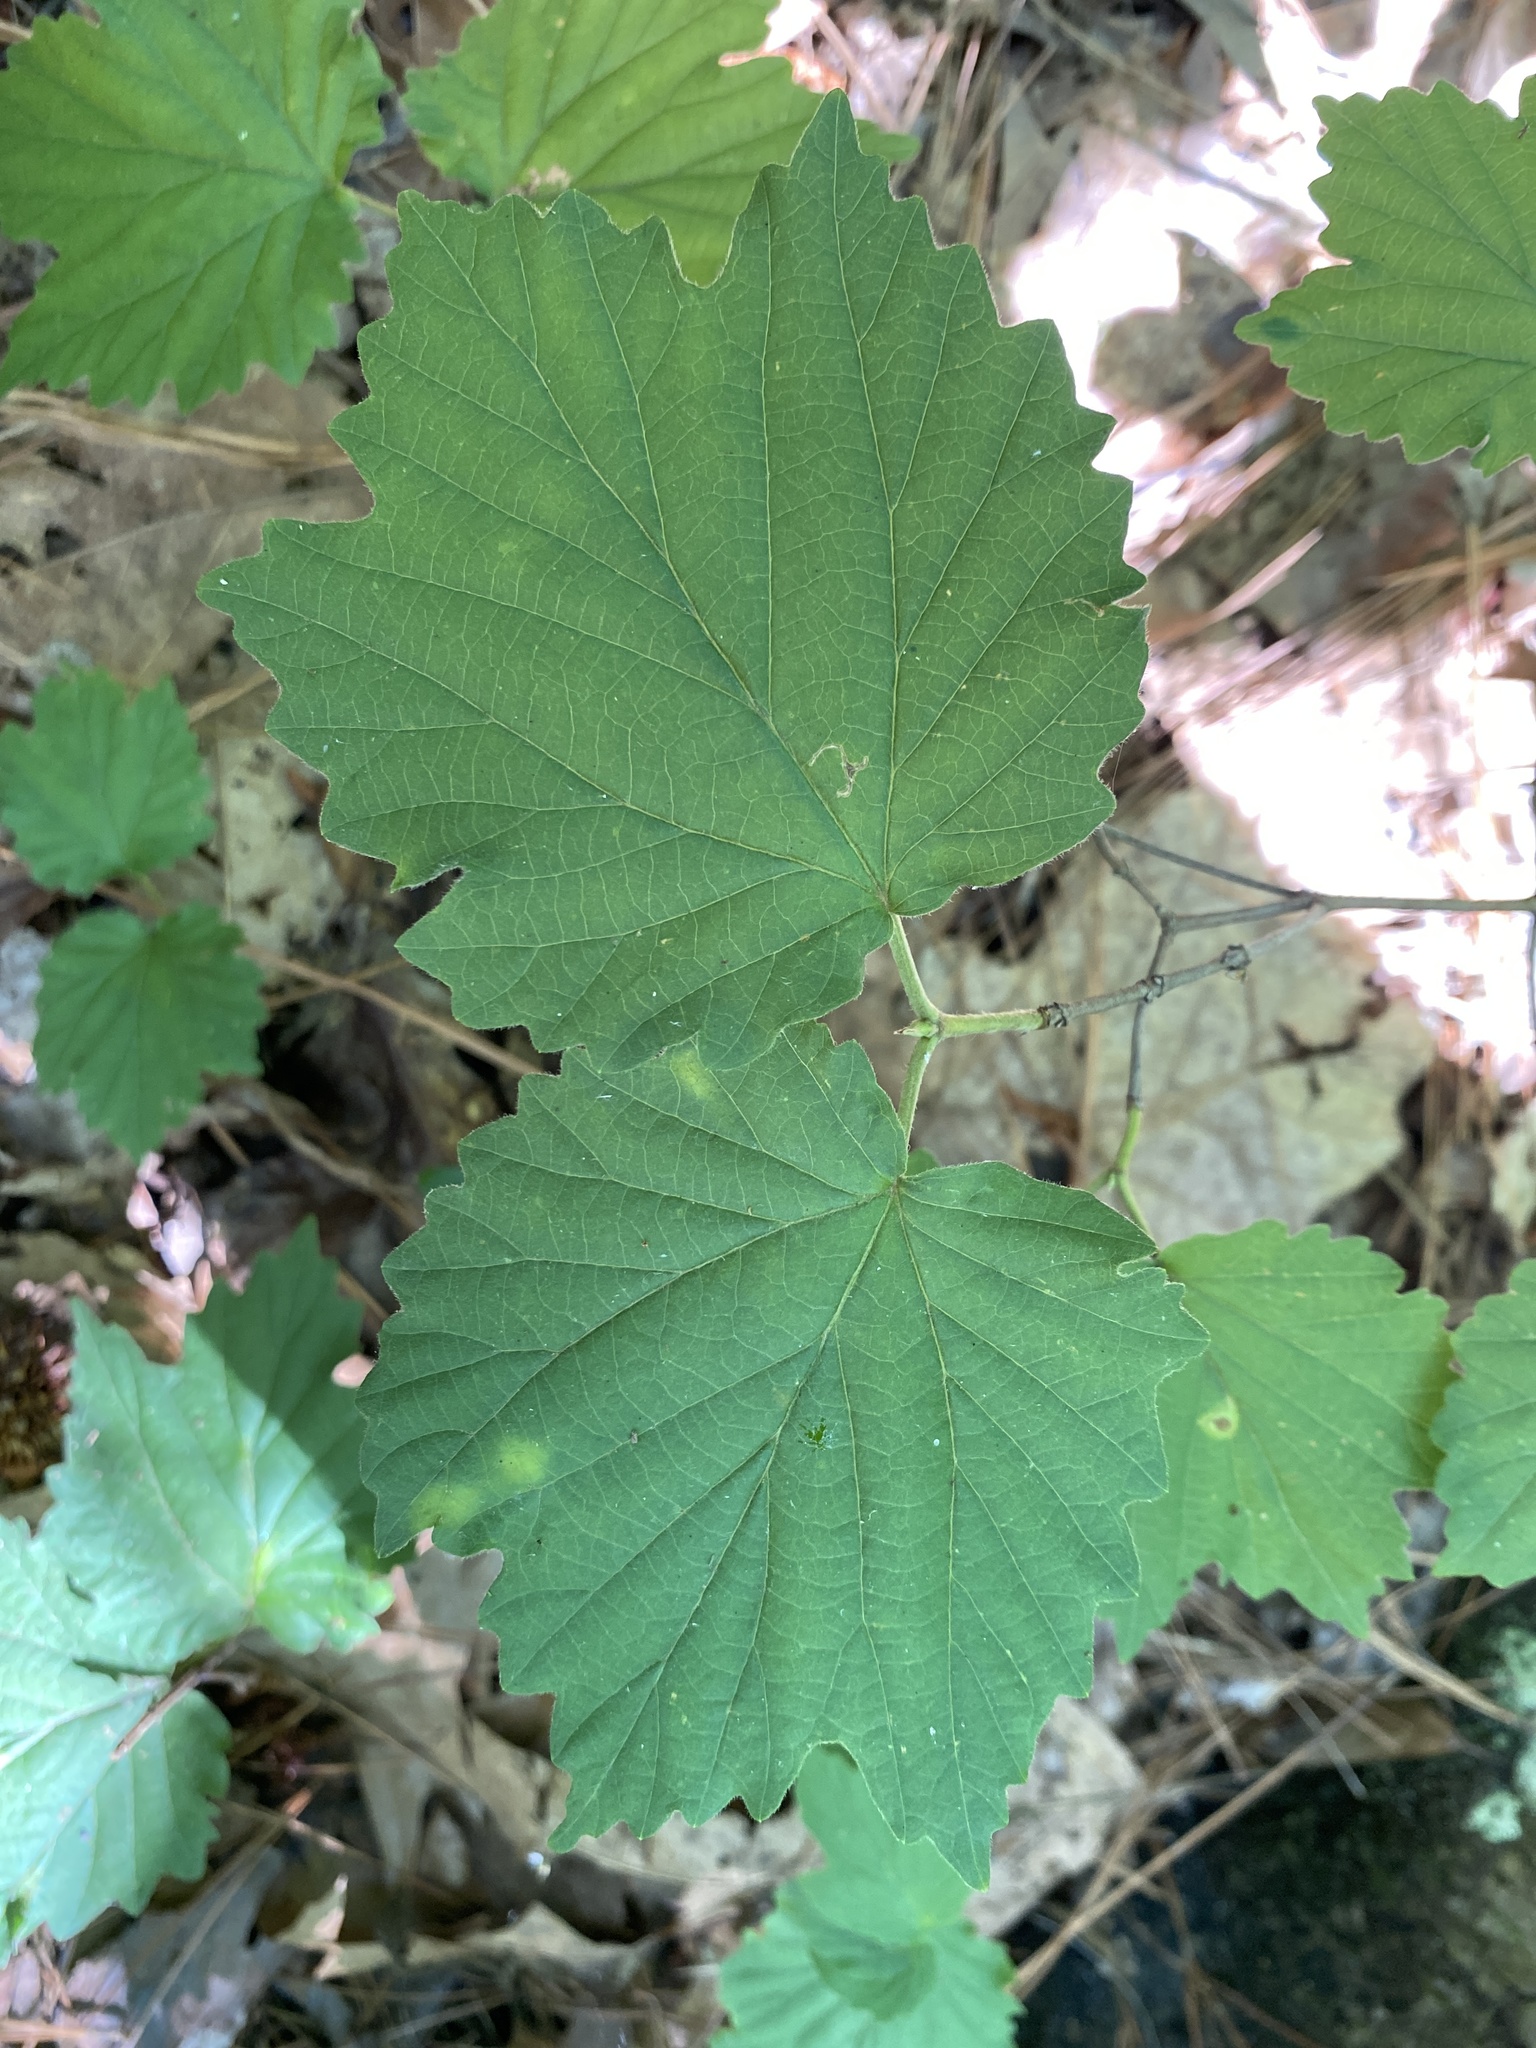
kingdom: Plantae
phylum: Tracheophyta
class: Magnoliopsida
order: Dipsacales
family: Viburnaceae
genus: Viburnum
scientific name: Viburnum acerifolium
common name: Dockmackie
